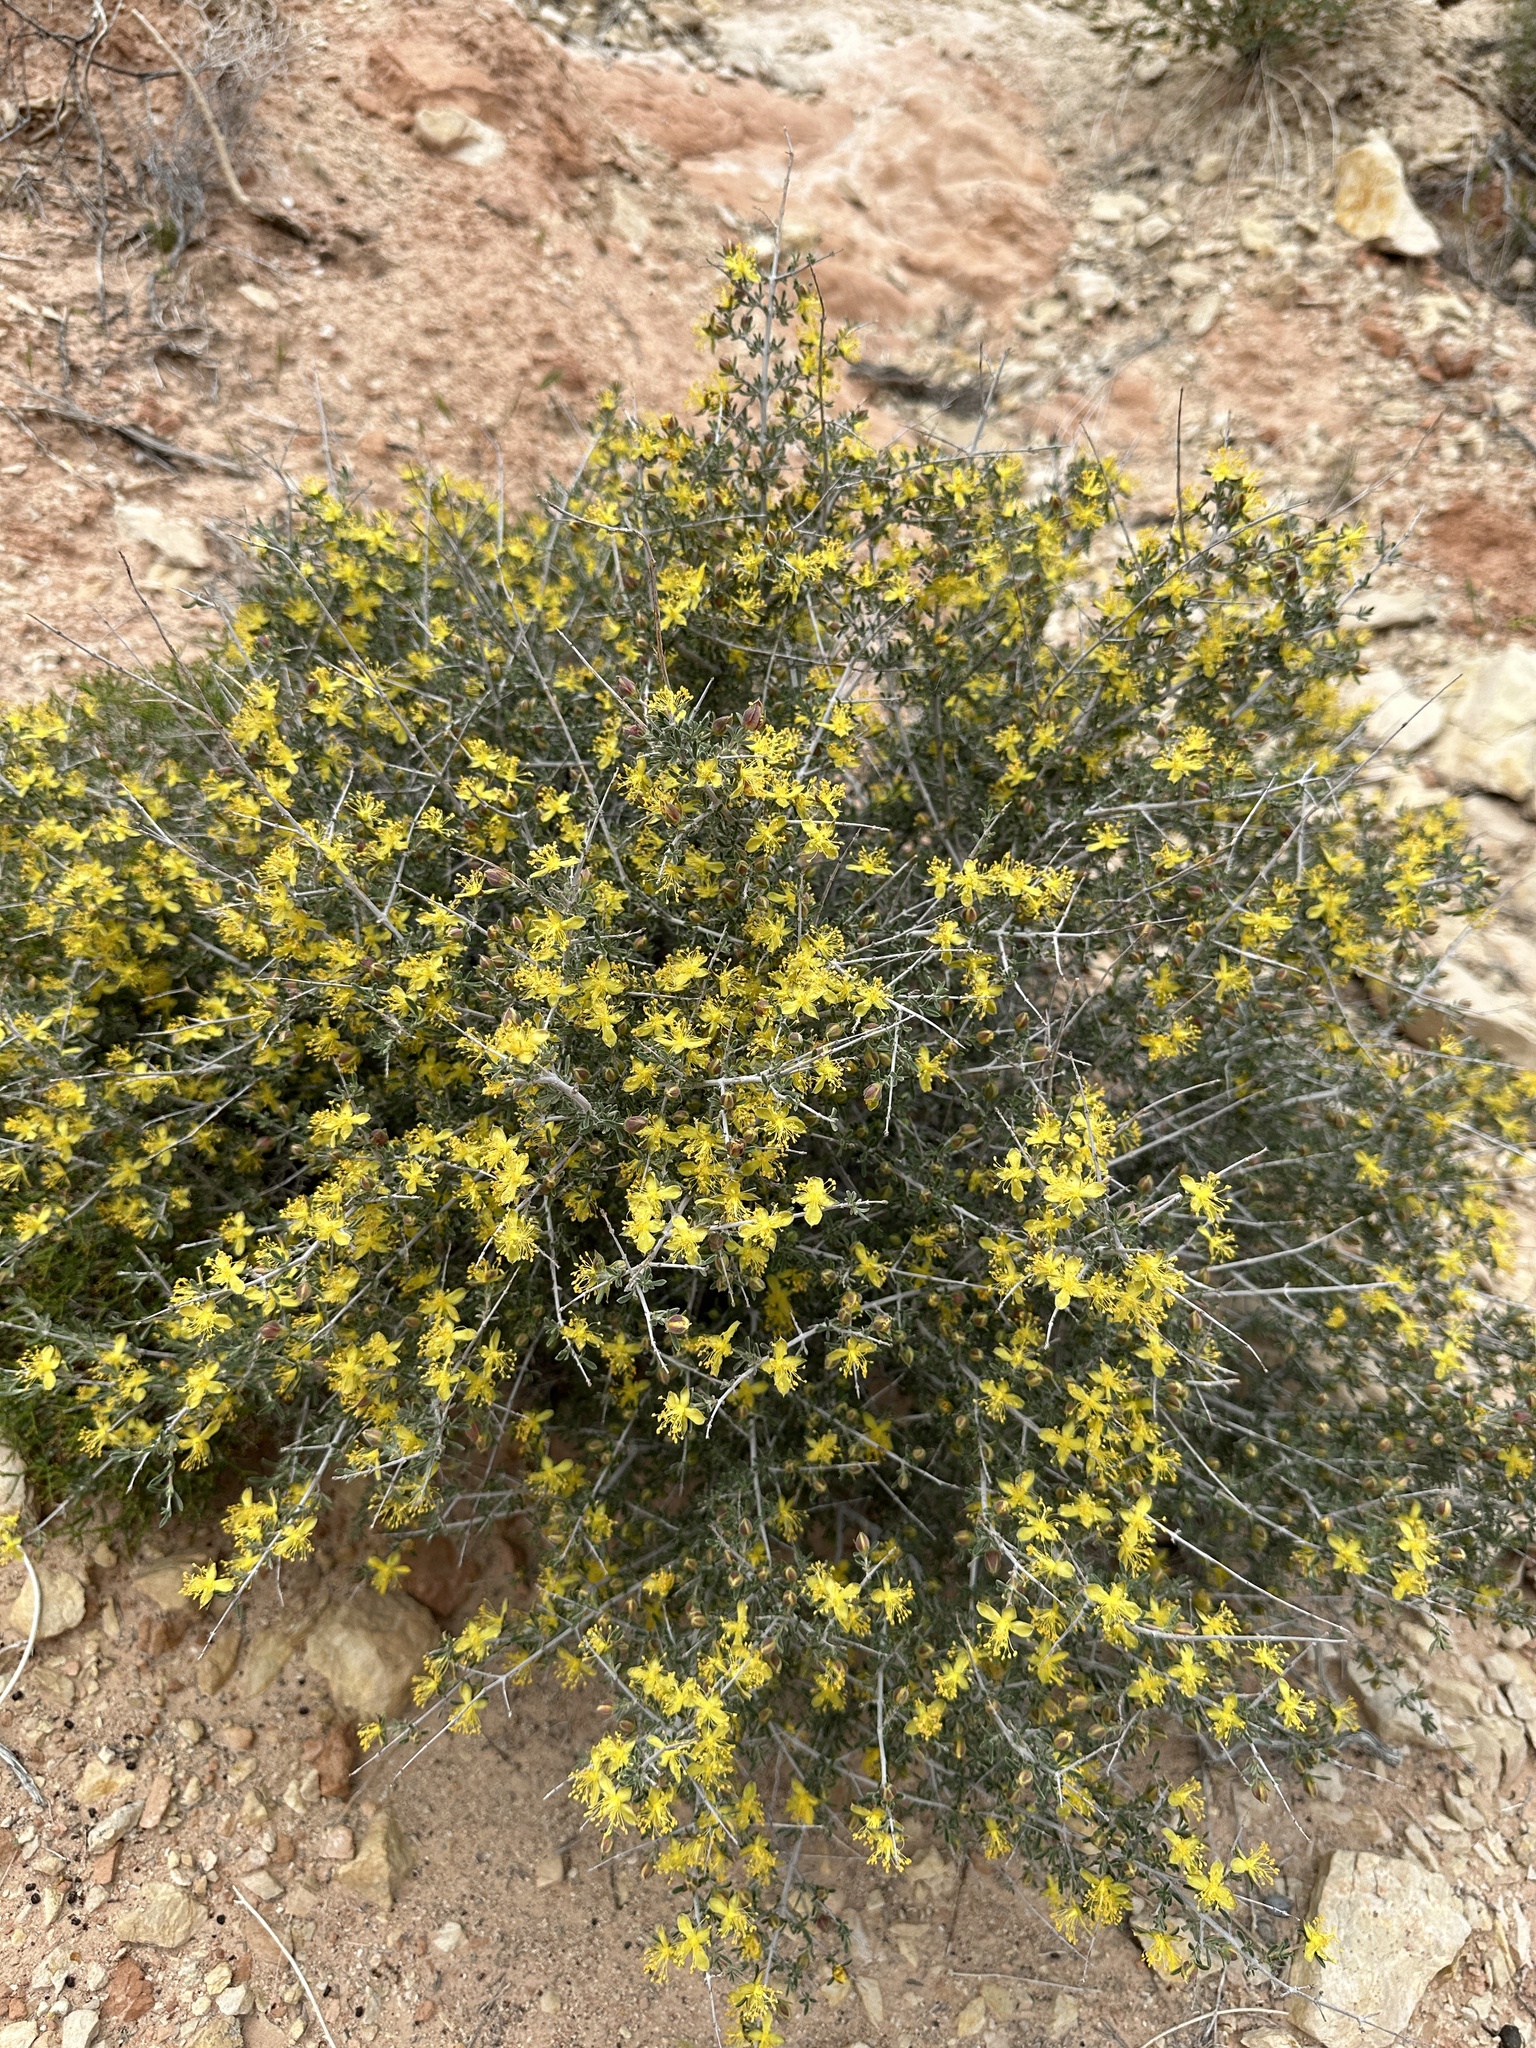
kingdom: Plantae
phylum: Tracheophyta
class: Magnoliopsida
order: Rosales
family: Rosaceae
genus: Coleogyne
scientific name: Coleogyne ramosissima
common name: Blackbrush
